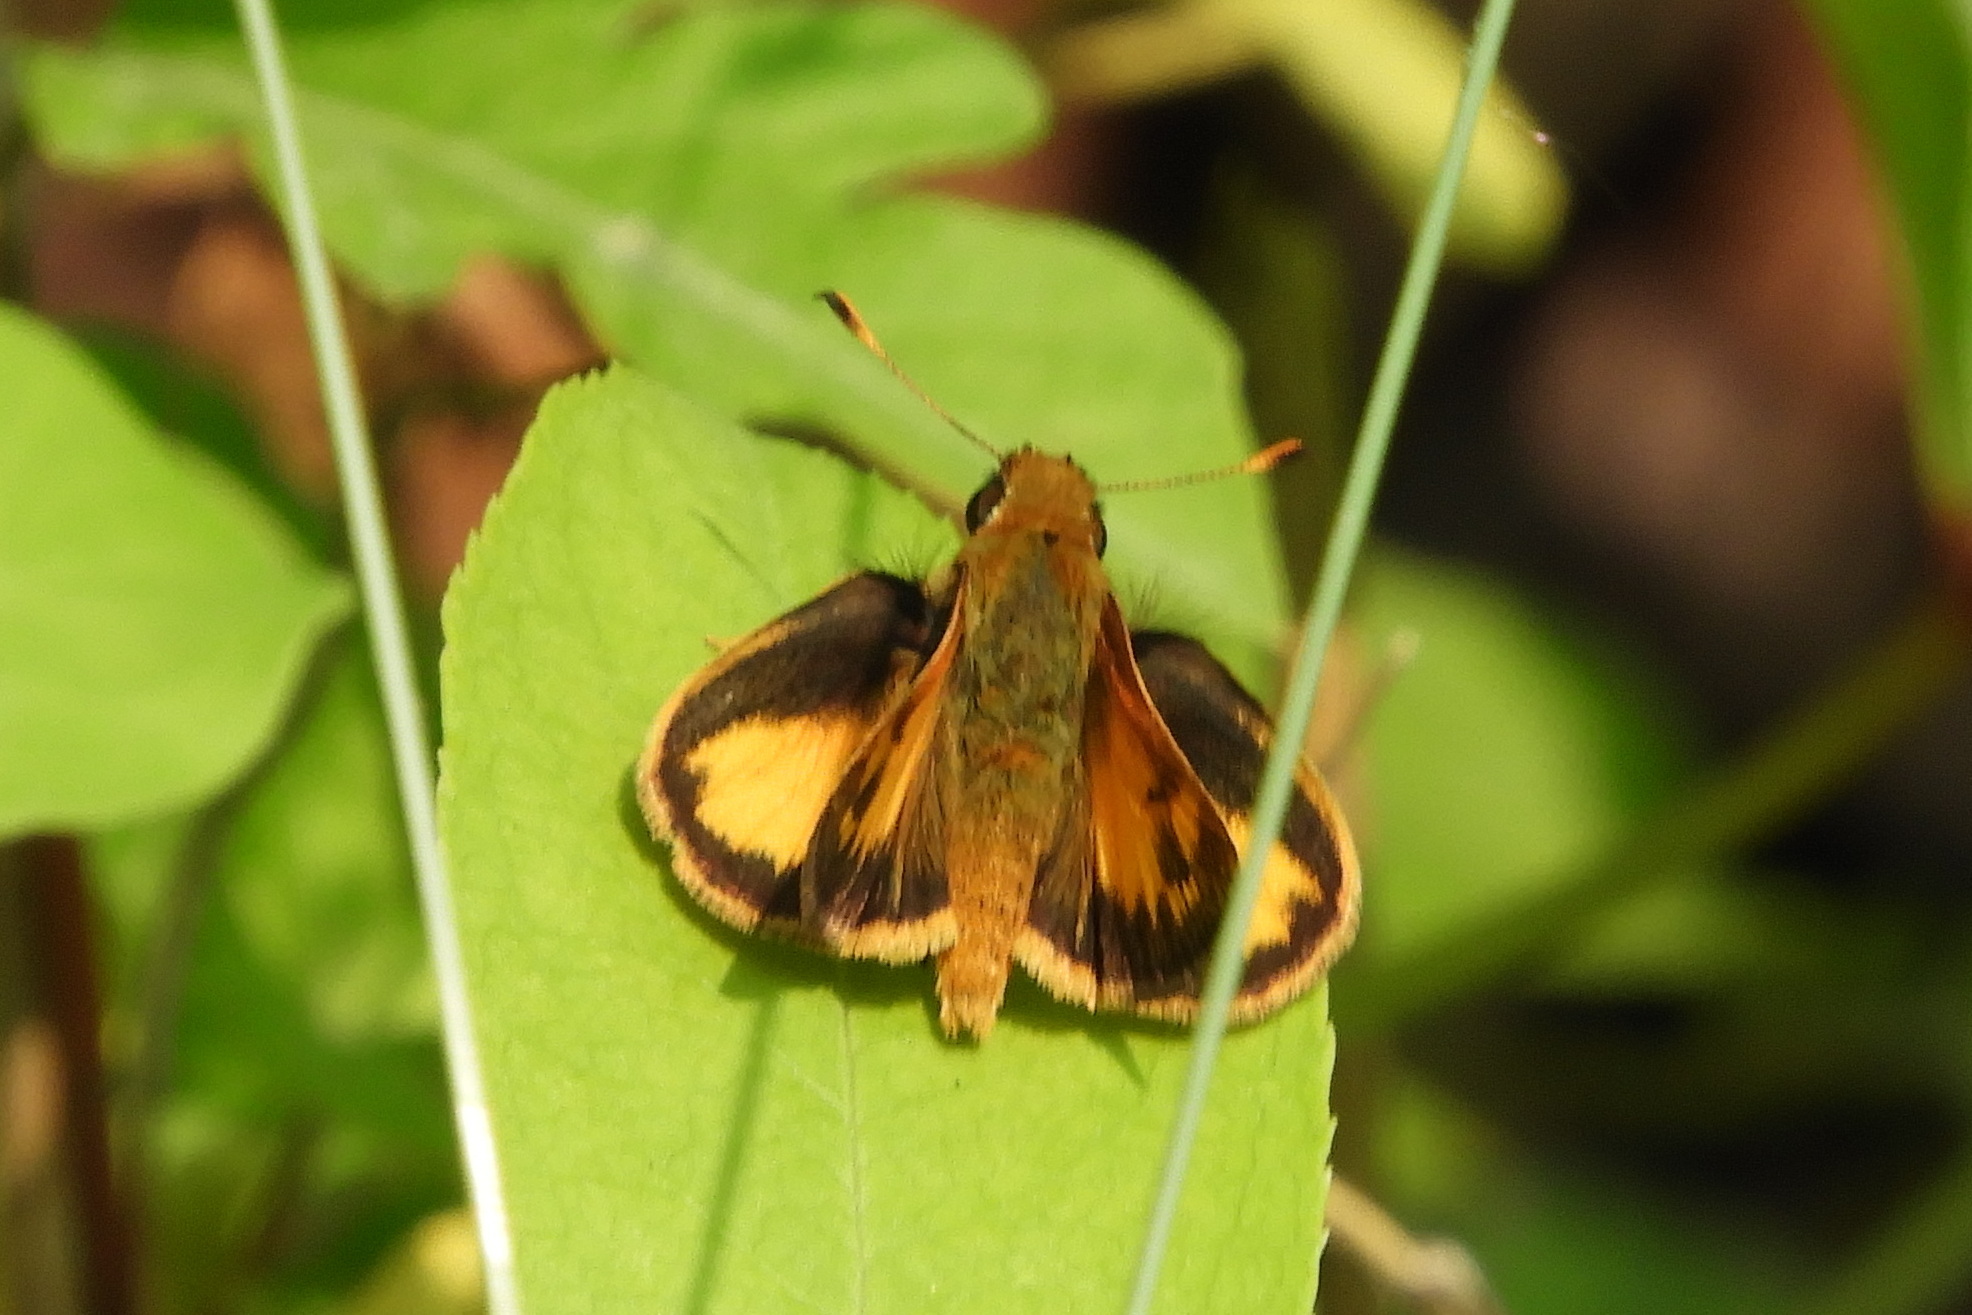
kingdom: Animalia
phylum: Arthropoda
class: Insecta
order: Lepidoptera
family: Hesperiidae
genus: Lon
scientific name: Lon zabulon
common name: Zabulon skipper
